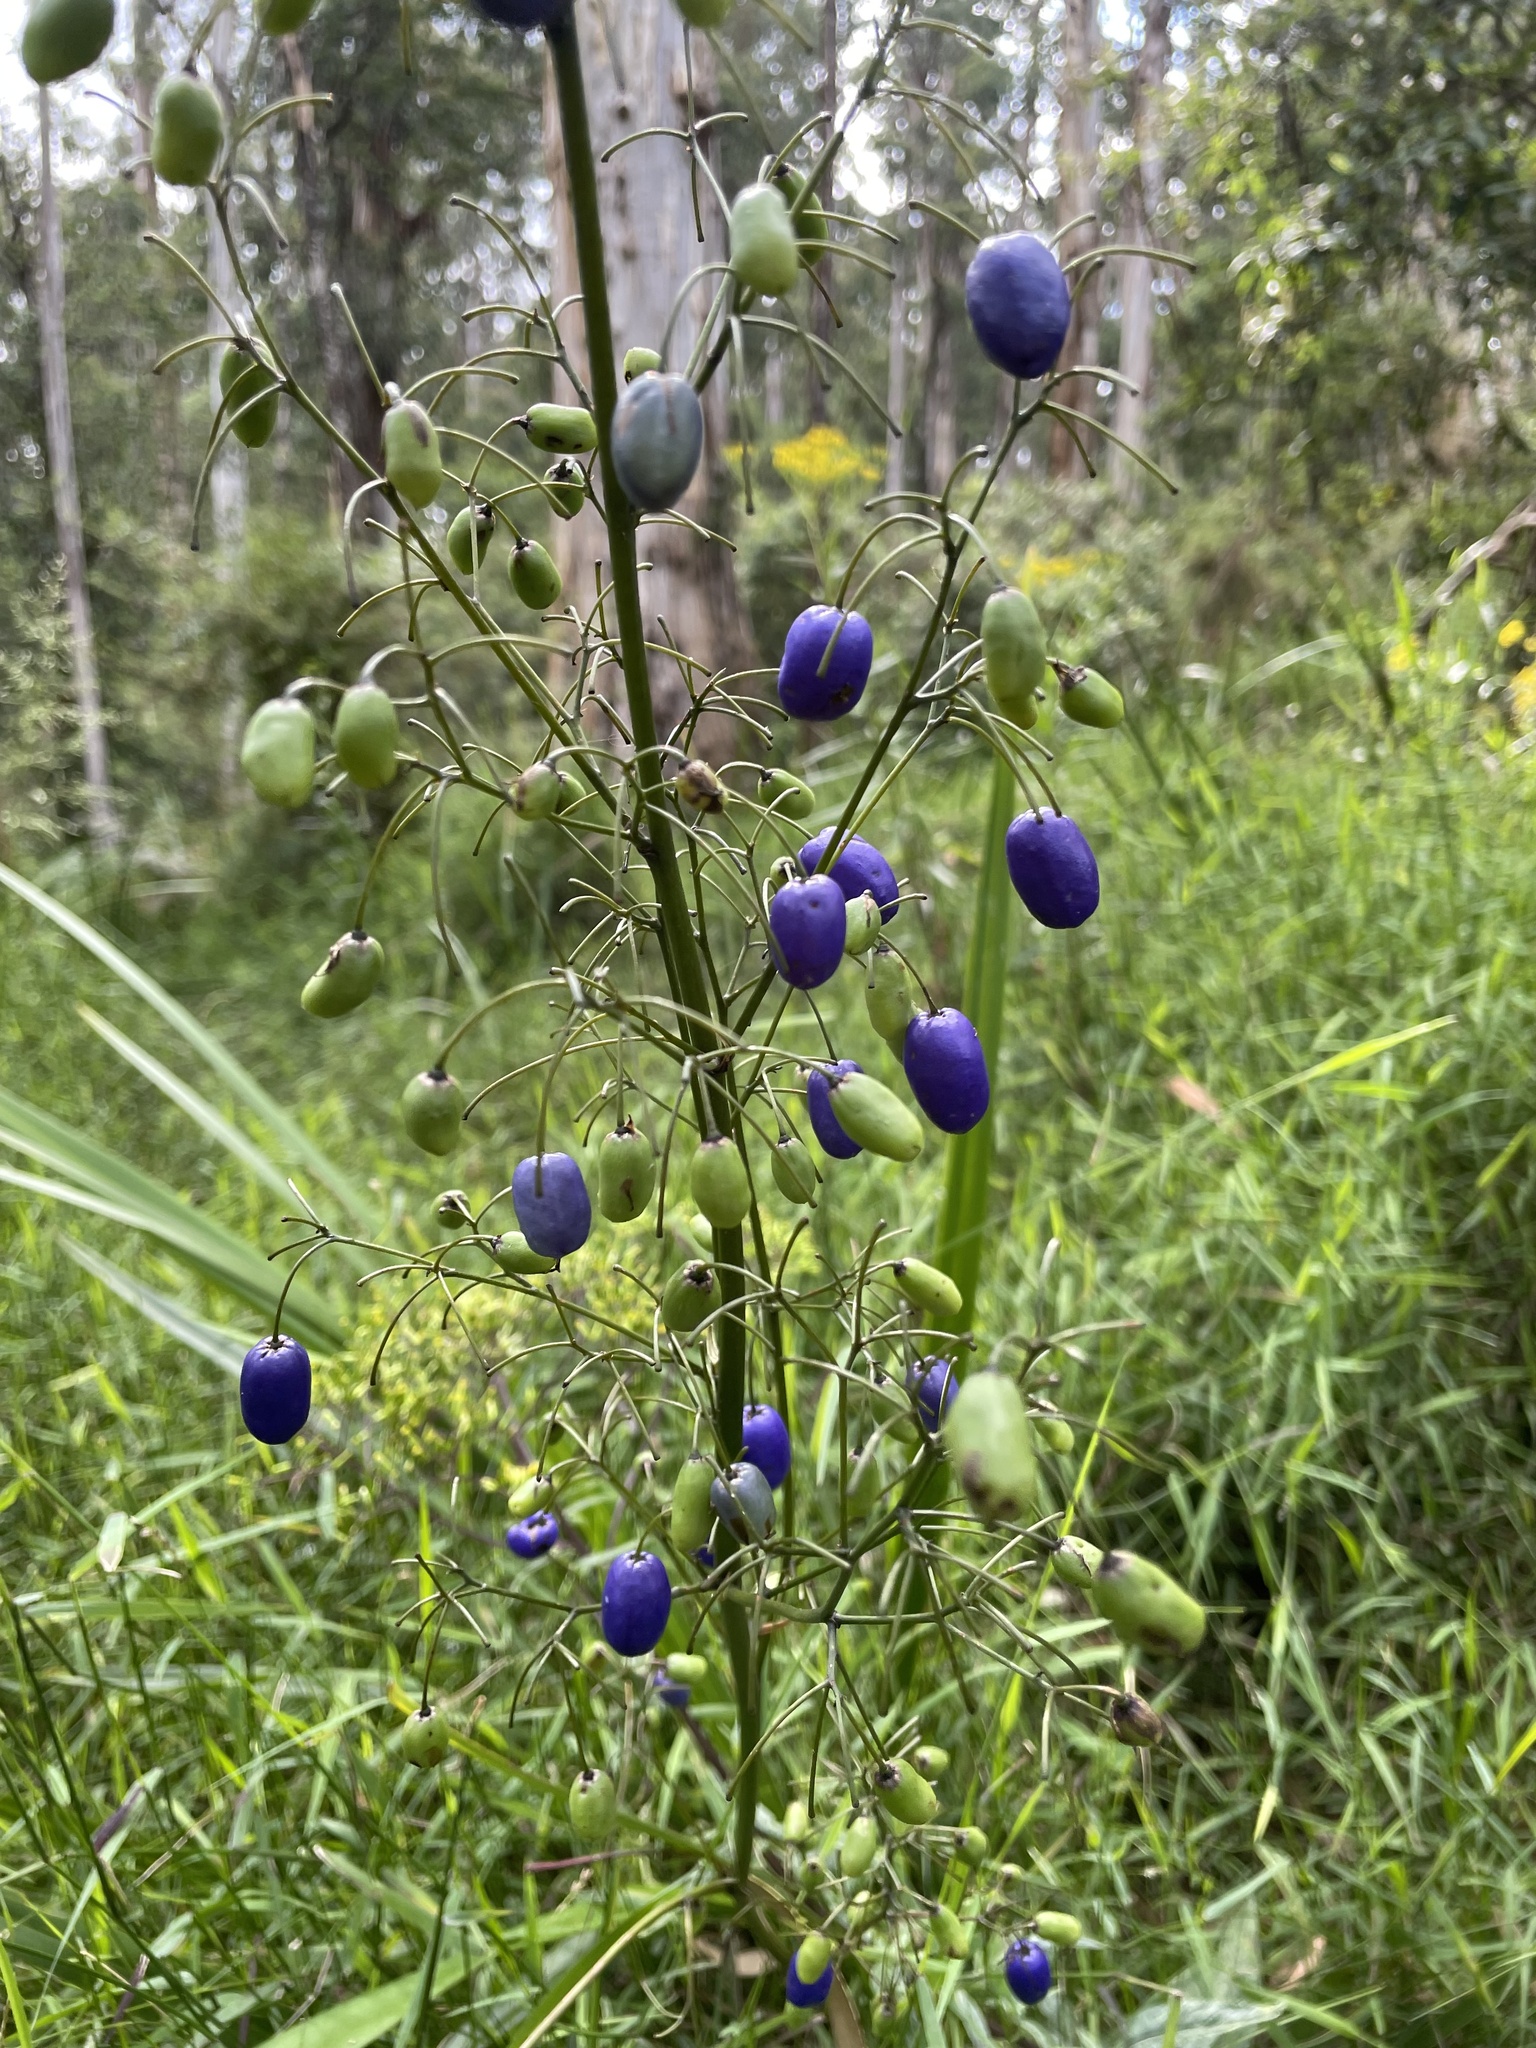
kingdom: Plantae
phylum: Tracheophyta
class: Liliopsida
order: Asparagales
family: Asphodelaceae
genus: Dianella
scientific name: Dianella tasmanica
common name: Tasman flax-lily
